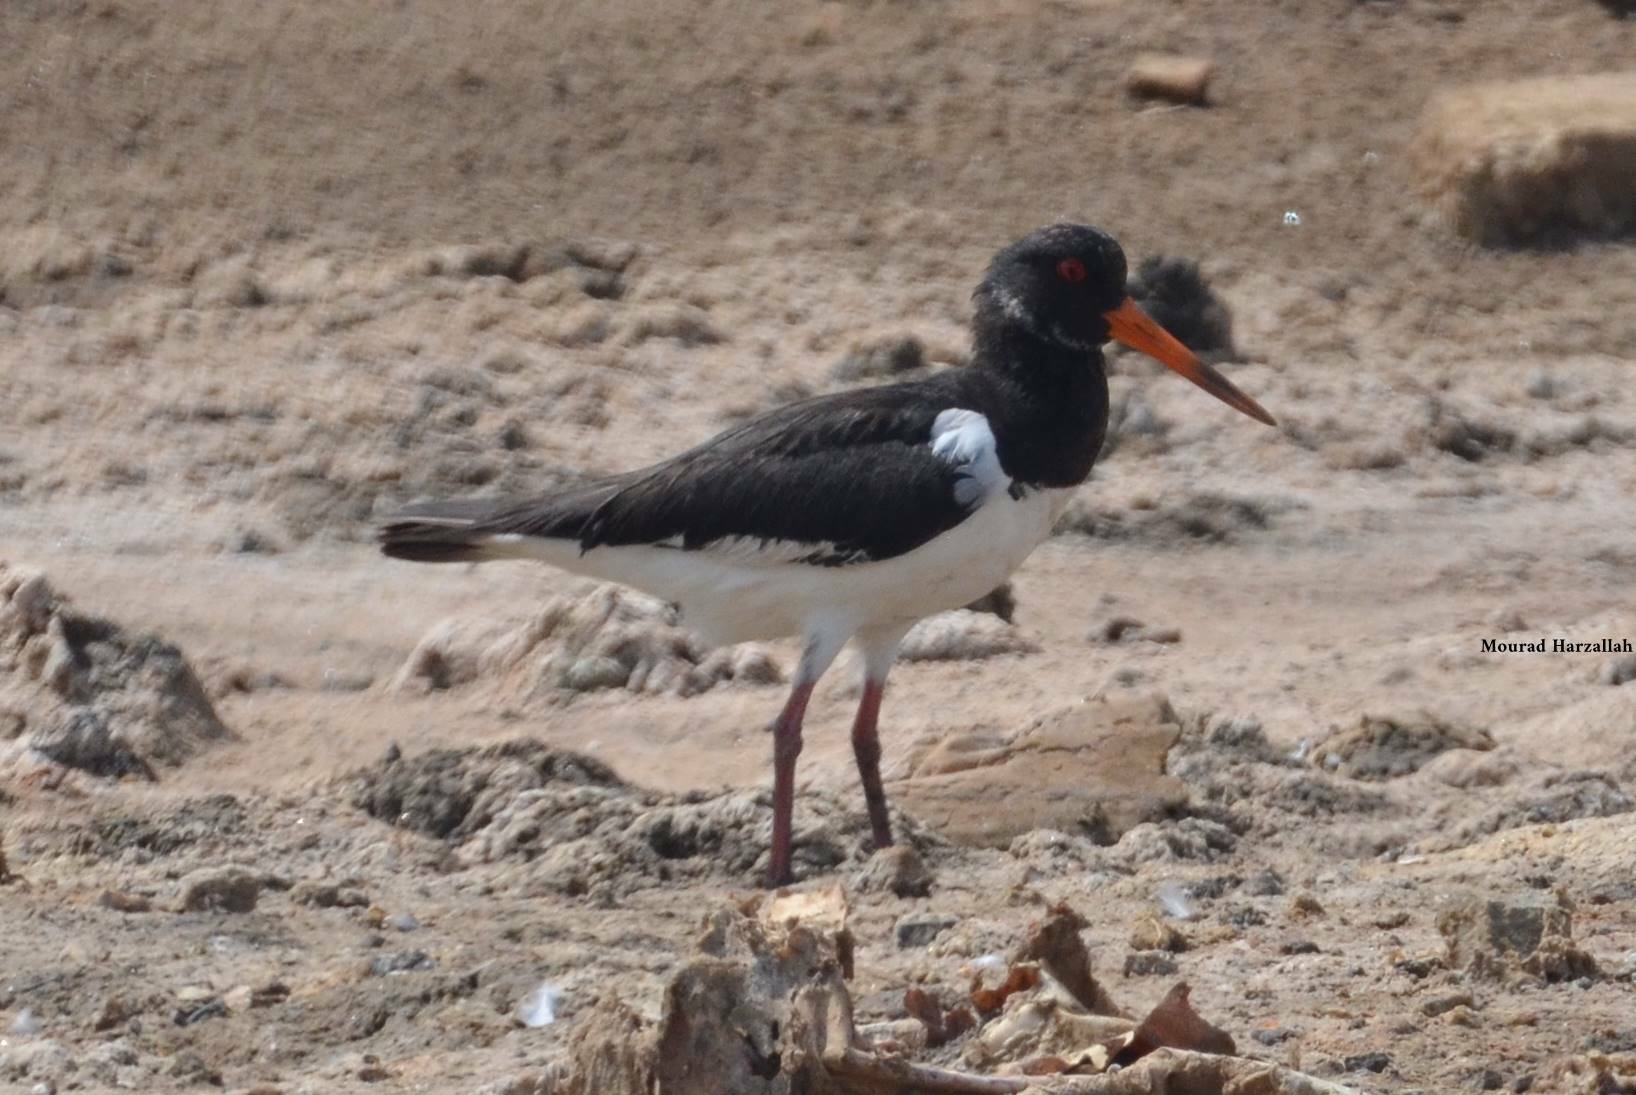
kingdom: Animalia
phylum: Chordata
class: Aves
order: Charadriiformes
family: Haematopodidae
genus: Haematopus
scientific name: Haematopus ostralegus
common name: Eurasian oystercatcher
